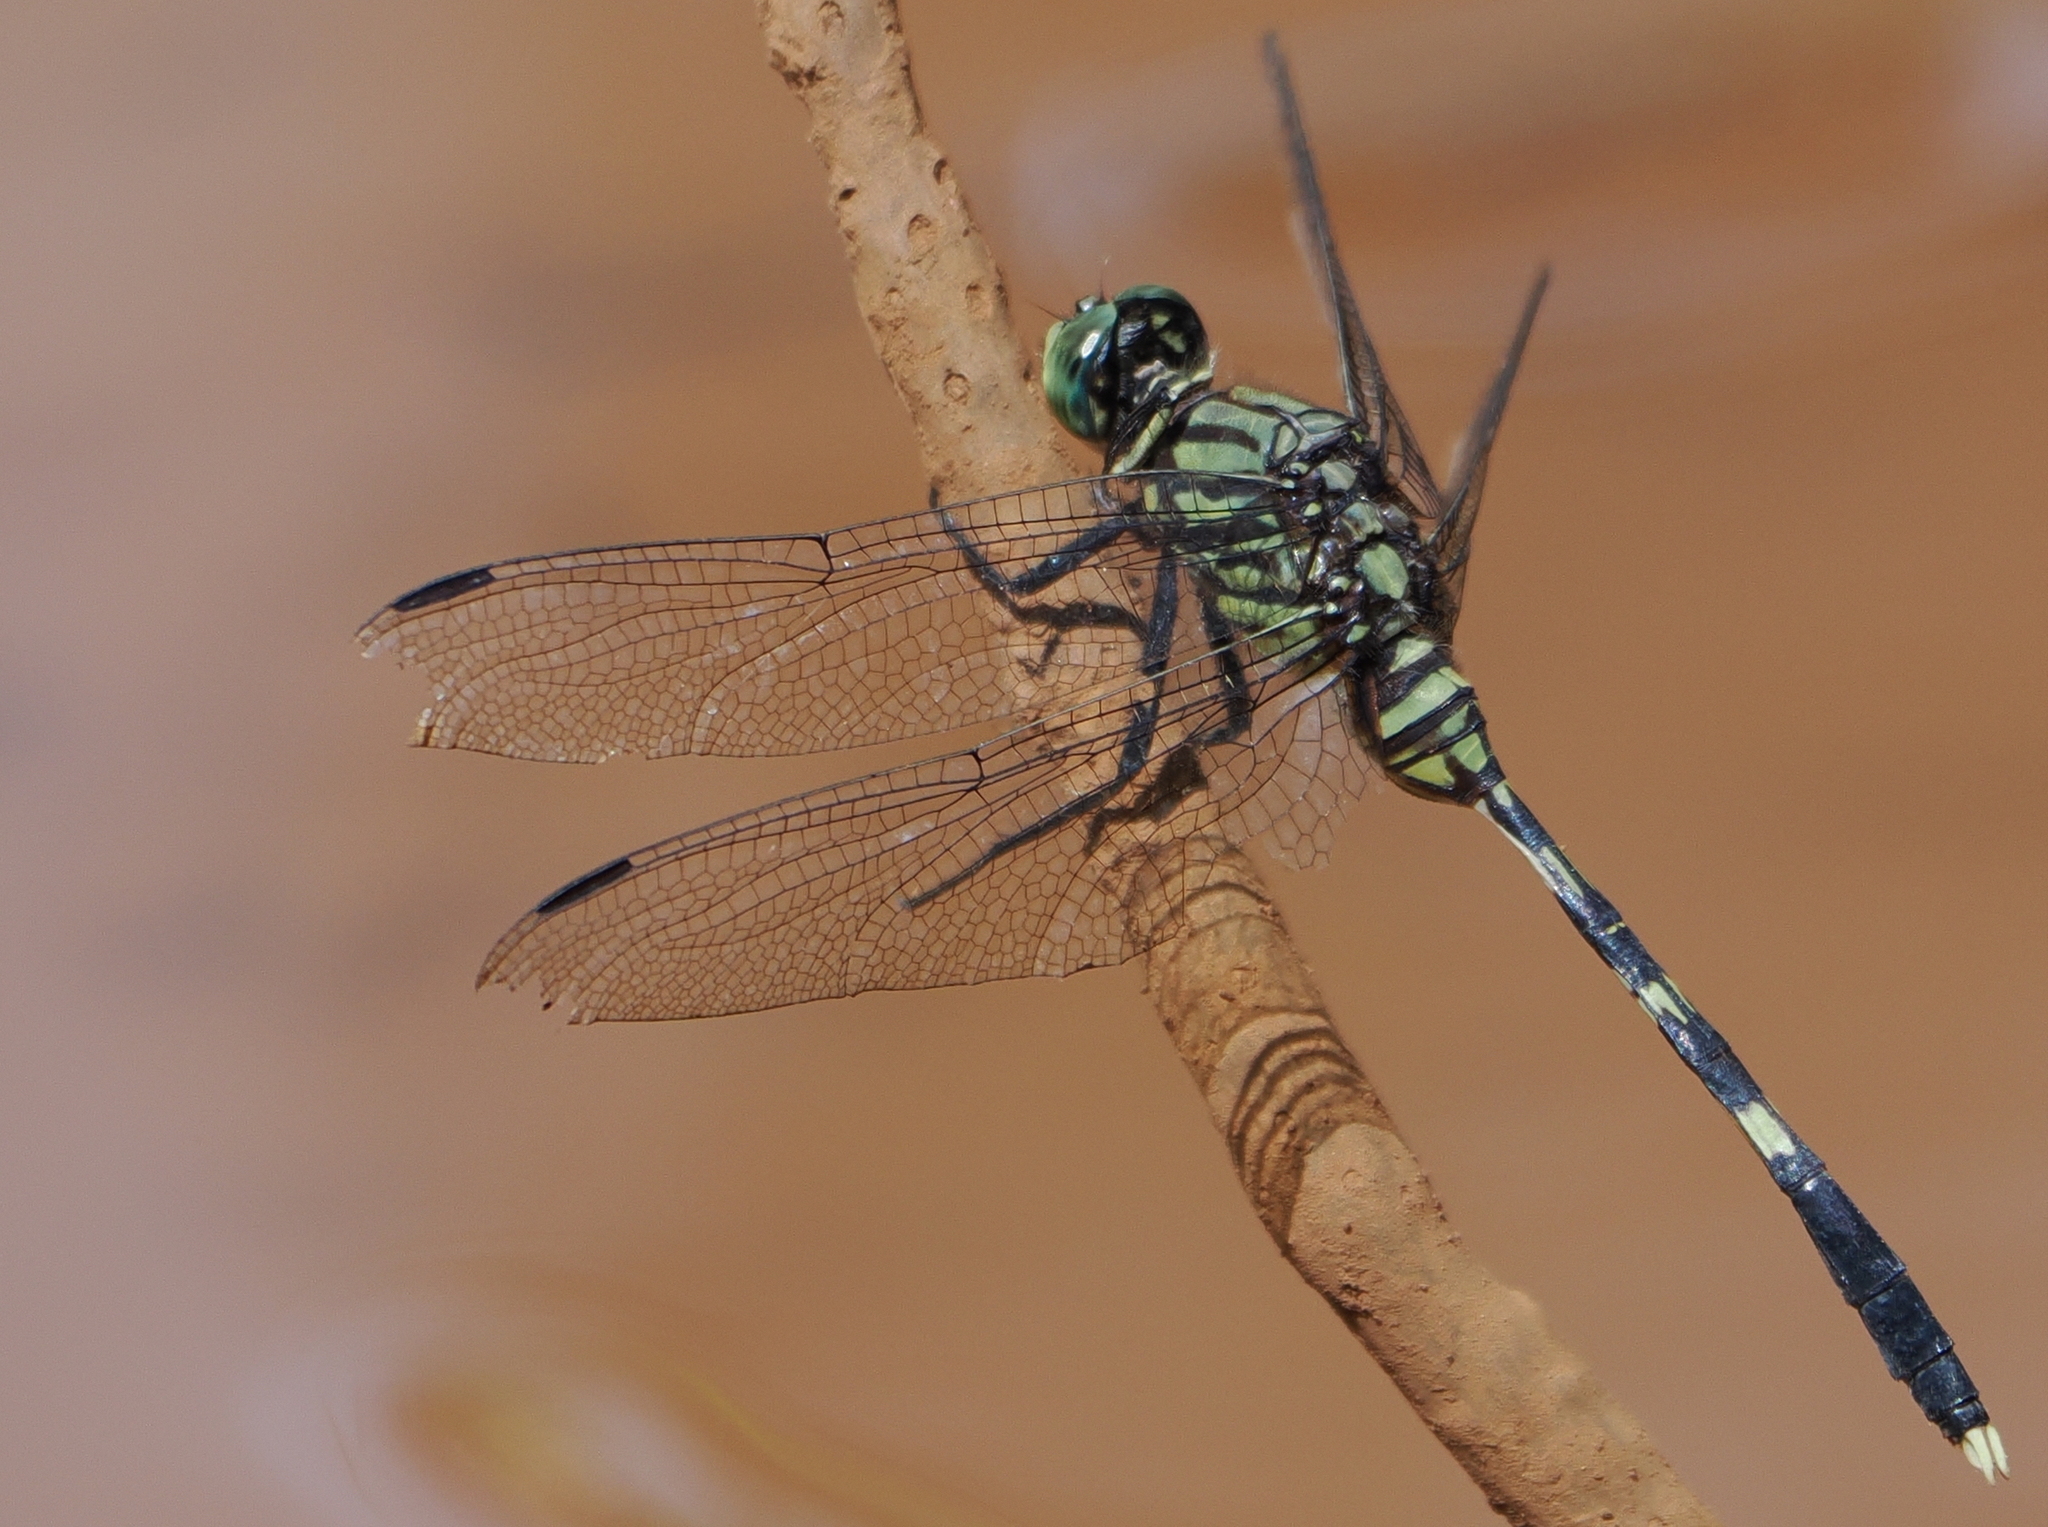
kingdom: Animalia
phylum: Arthropoda
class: Insecta
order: Odonata
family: Libellulidae
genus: Orthetrum
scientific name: Orthetrum serapia
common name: Green skimmer
